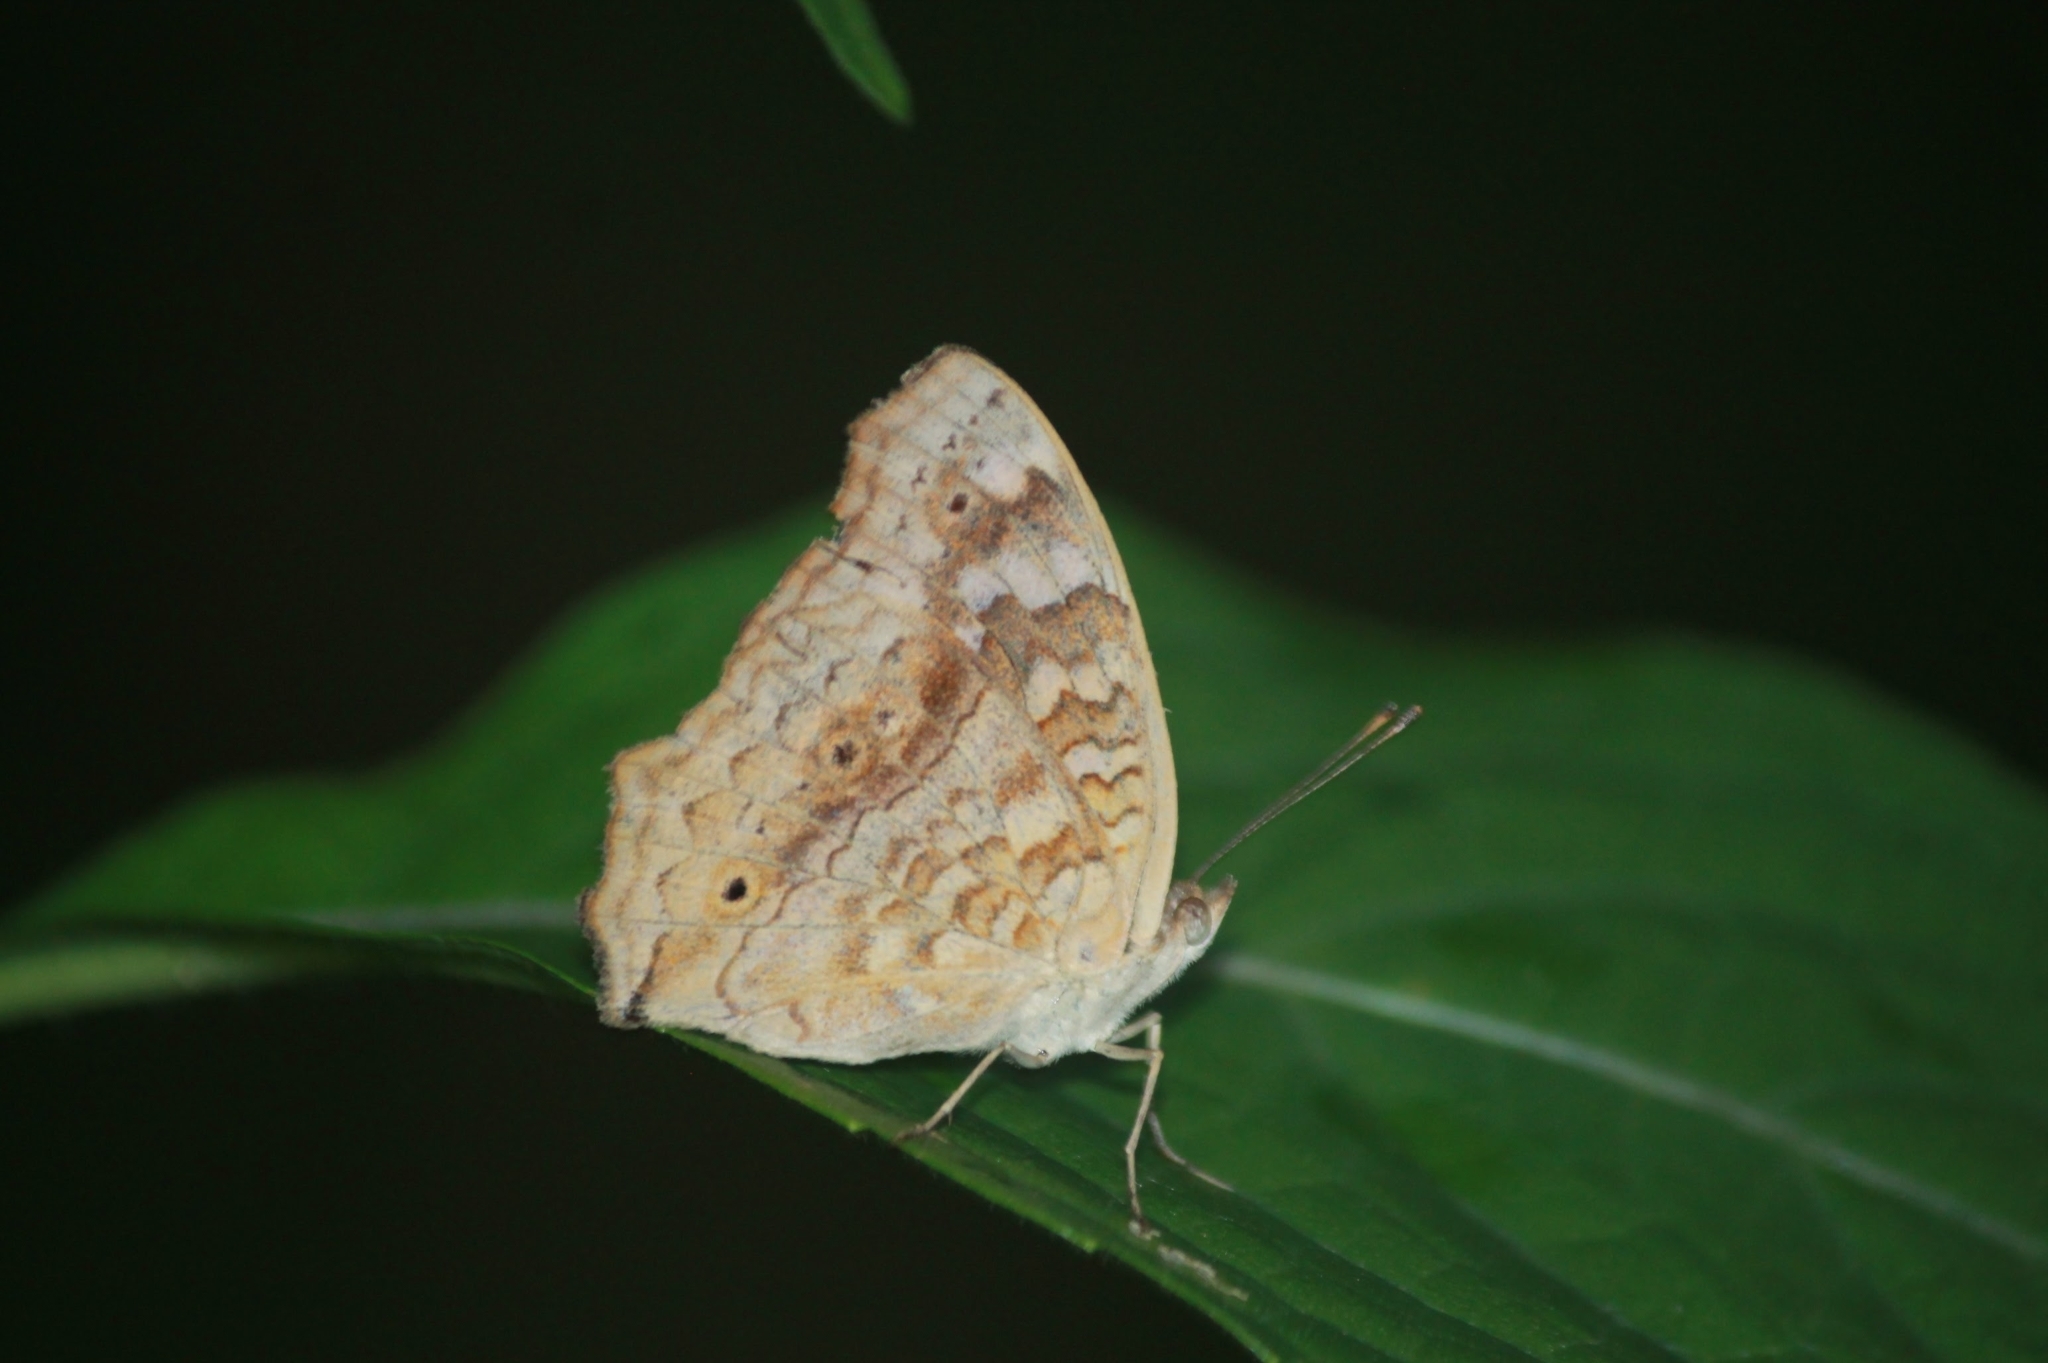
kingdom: Animalia
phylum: Arthropoda
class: Insecta
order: Lepidoptera
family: Nymphalidae
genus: Junonia
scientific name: Junonia lemonias
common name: Lemon pansy
